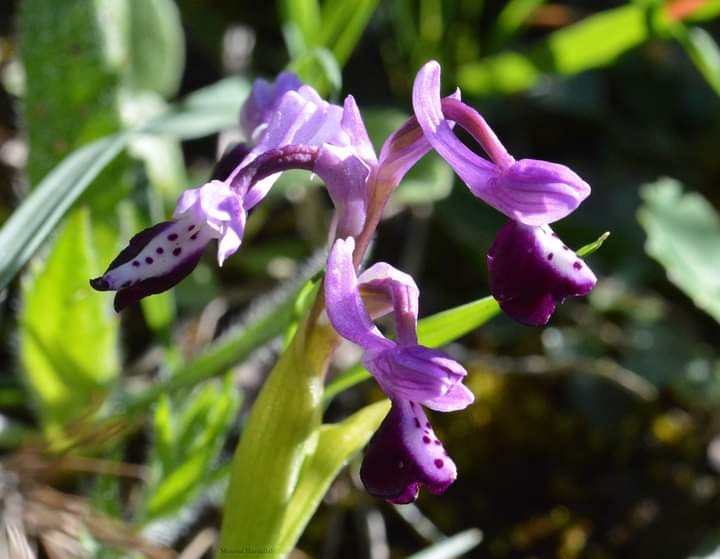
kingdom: Plantae
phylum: Tracheophyta
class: Liliopsida
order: Asparagales
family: Orchidaceae
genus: Anacamptis
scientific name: Anacamptis morio
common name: Green-winged orchid
